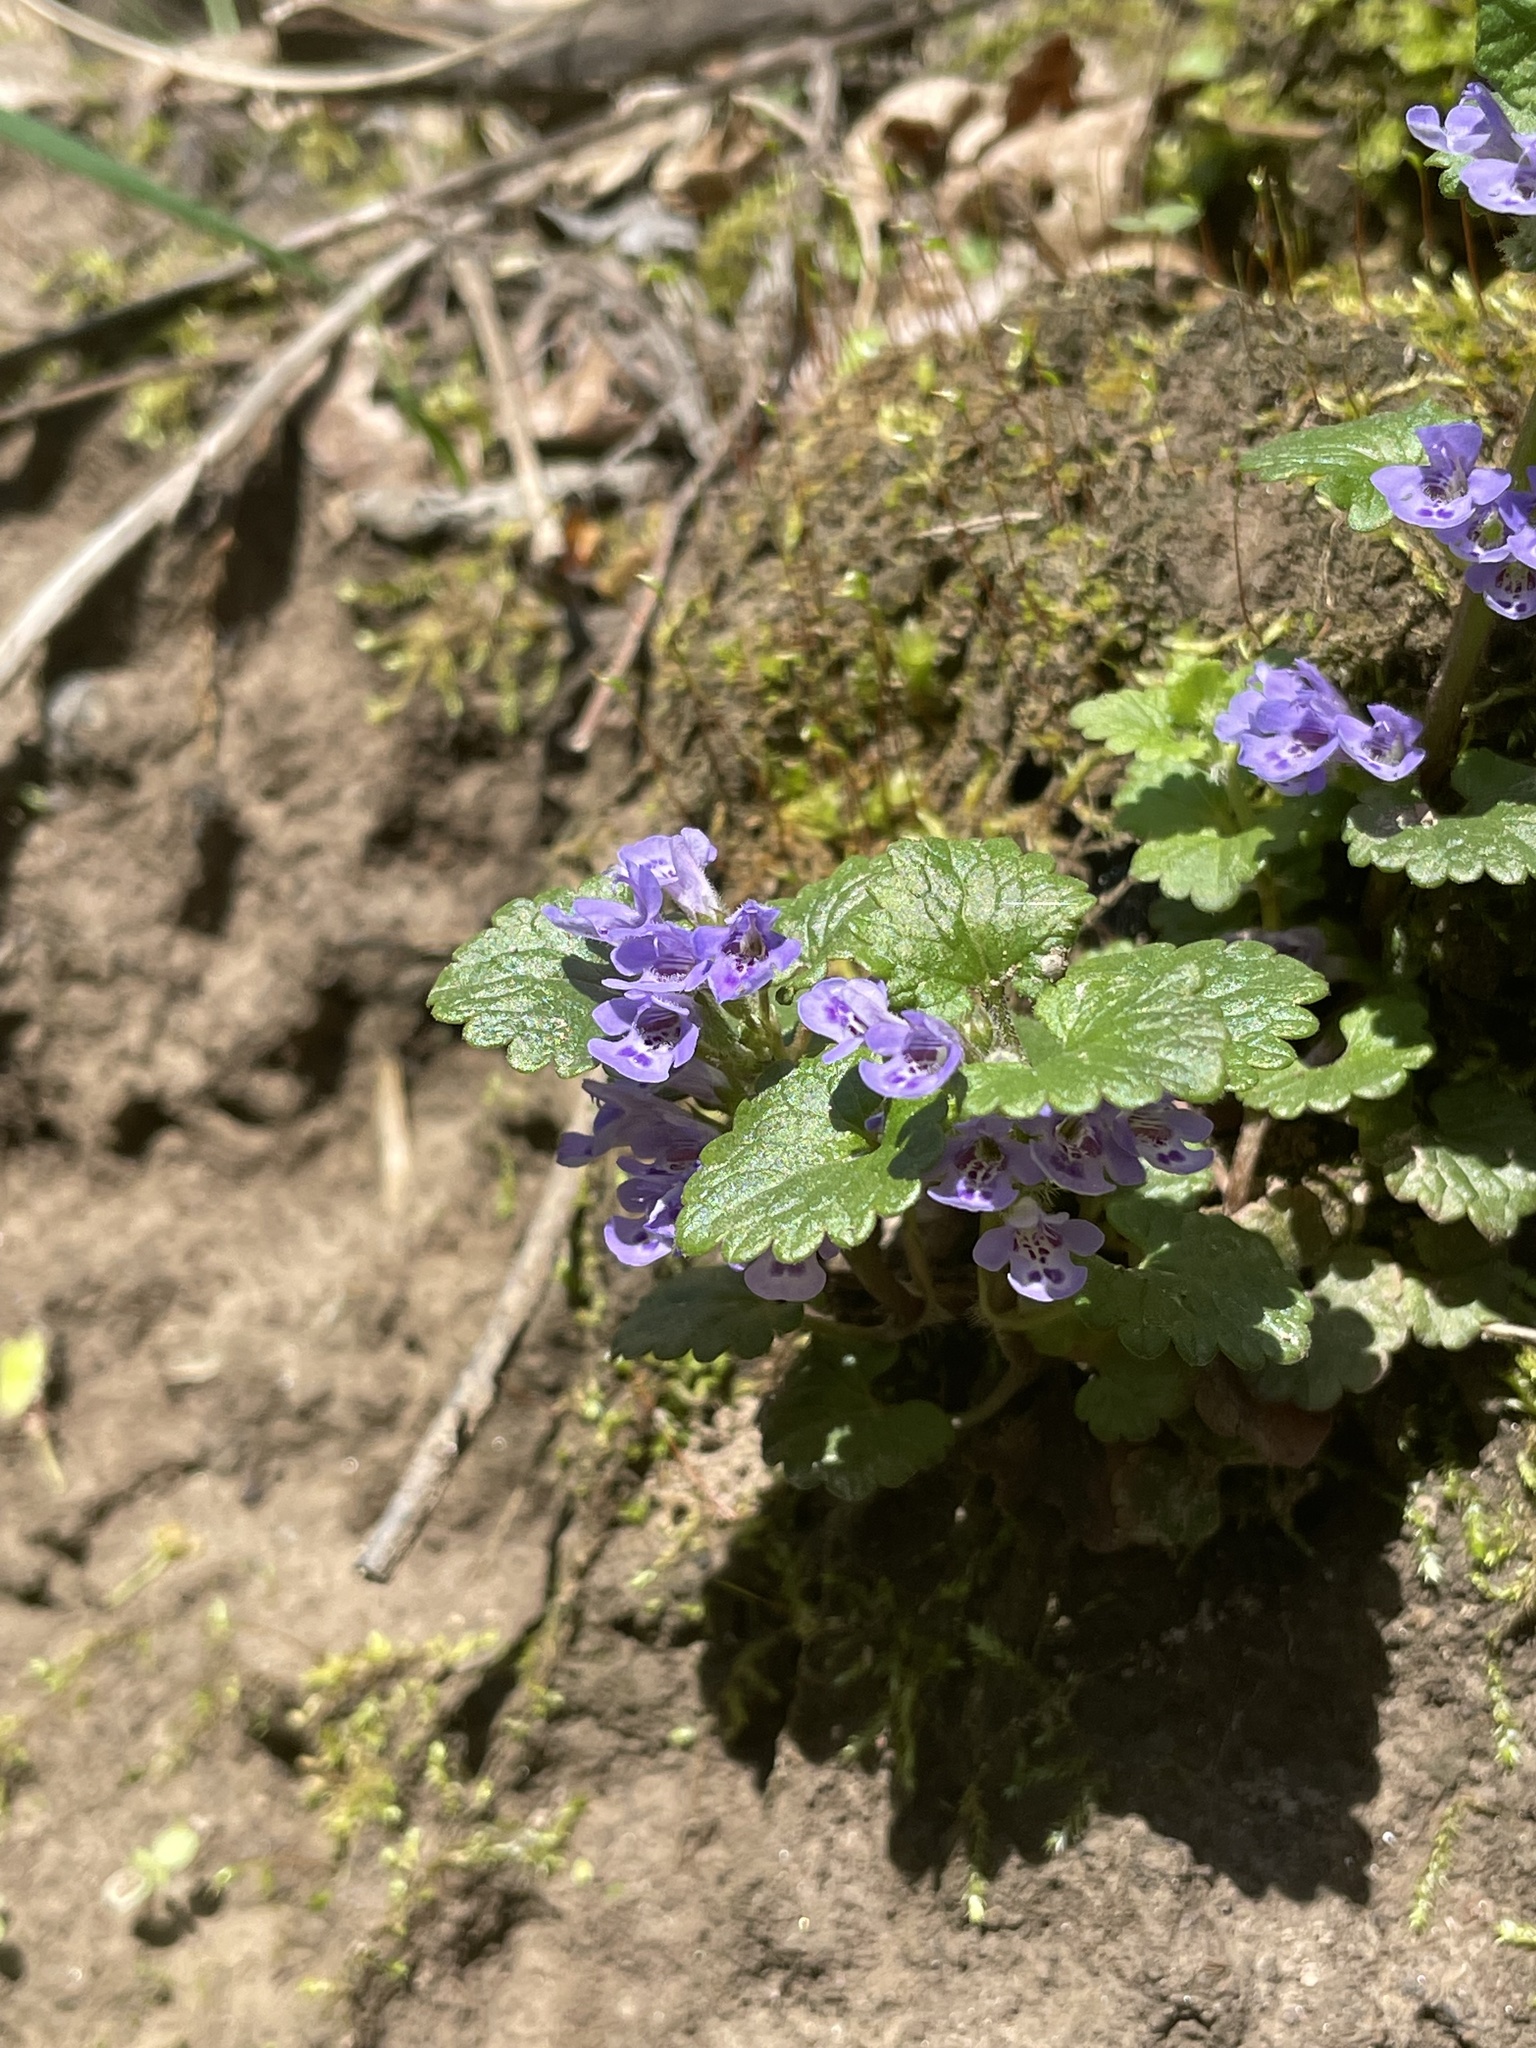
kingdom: Plantae
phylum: Tracheophyta
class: Magnoliopsida
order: Lamiales
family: Lamiaceae
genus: Glechoma
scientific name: Glechoma hederacea
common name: Ground ivy
